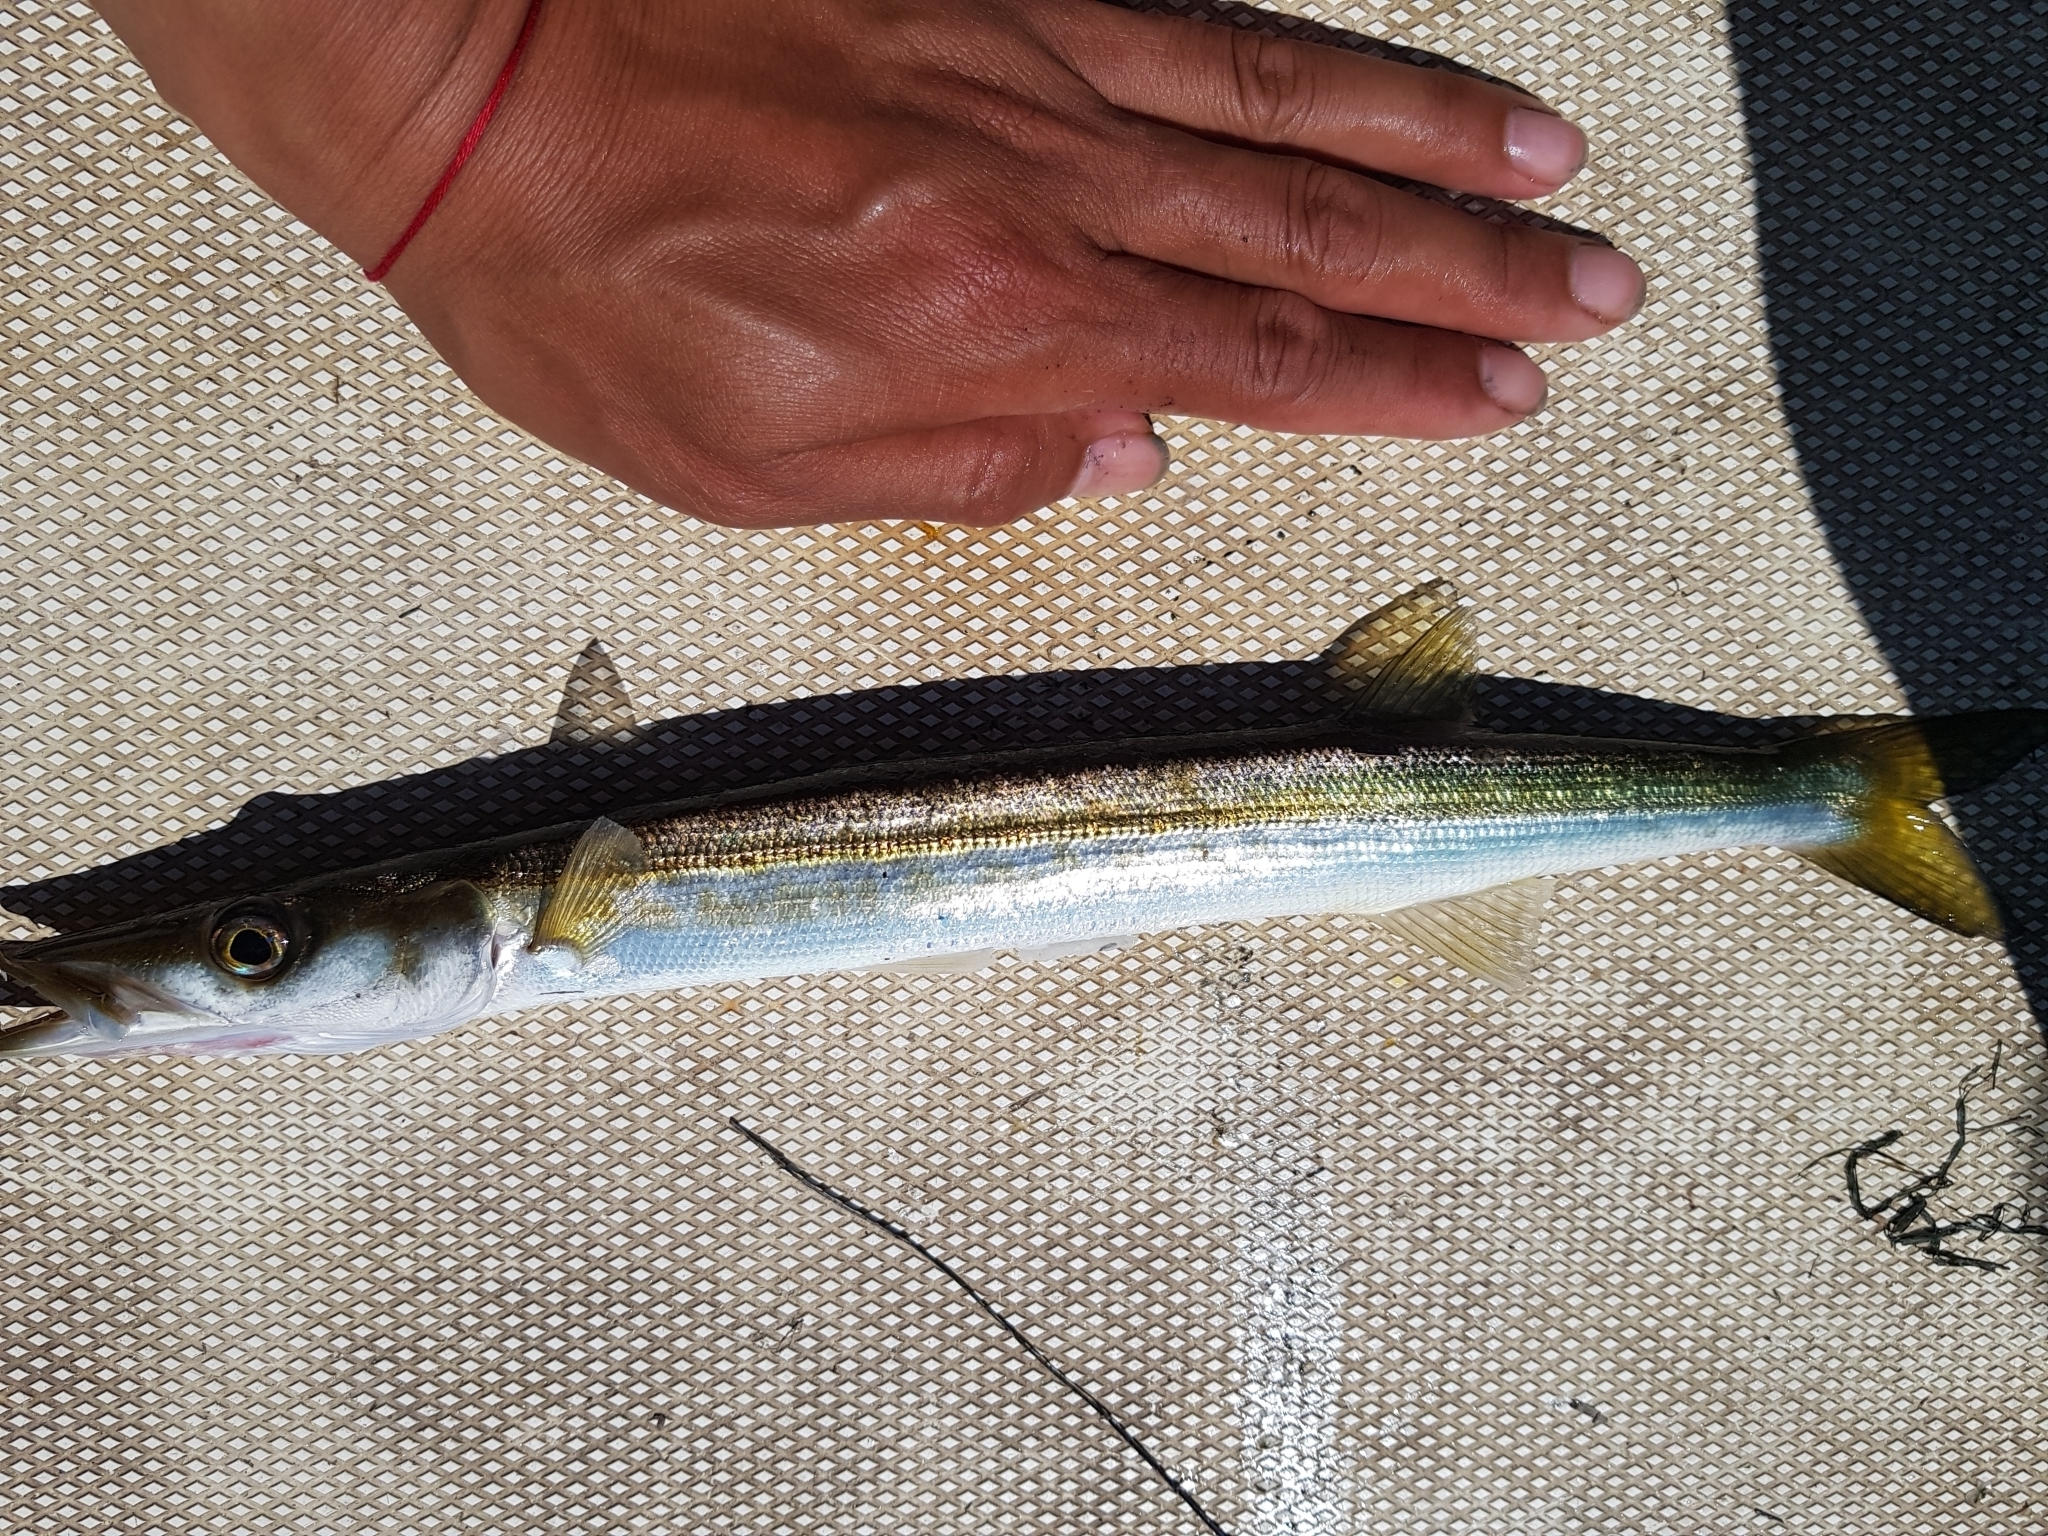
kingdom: Animalia
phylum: Chordata
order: Perciformes
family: Sphyraenidae
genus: Sphyraena
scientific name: Sphyraena novaehollandiae
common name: Arrow barracuda
